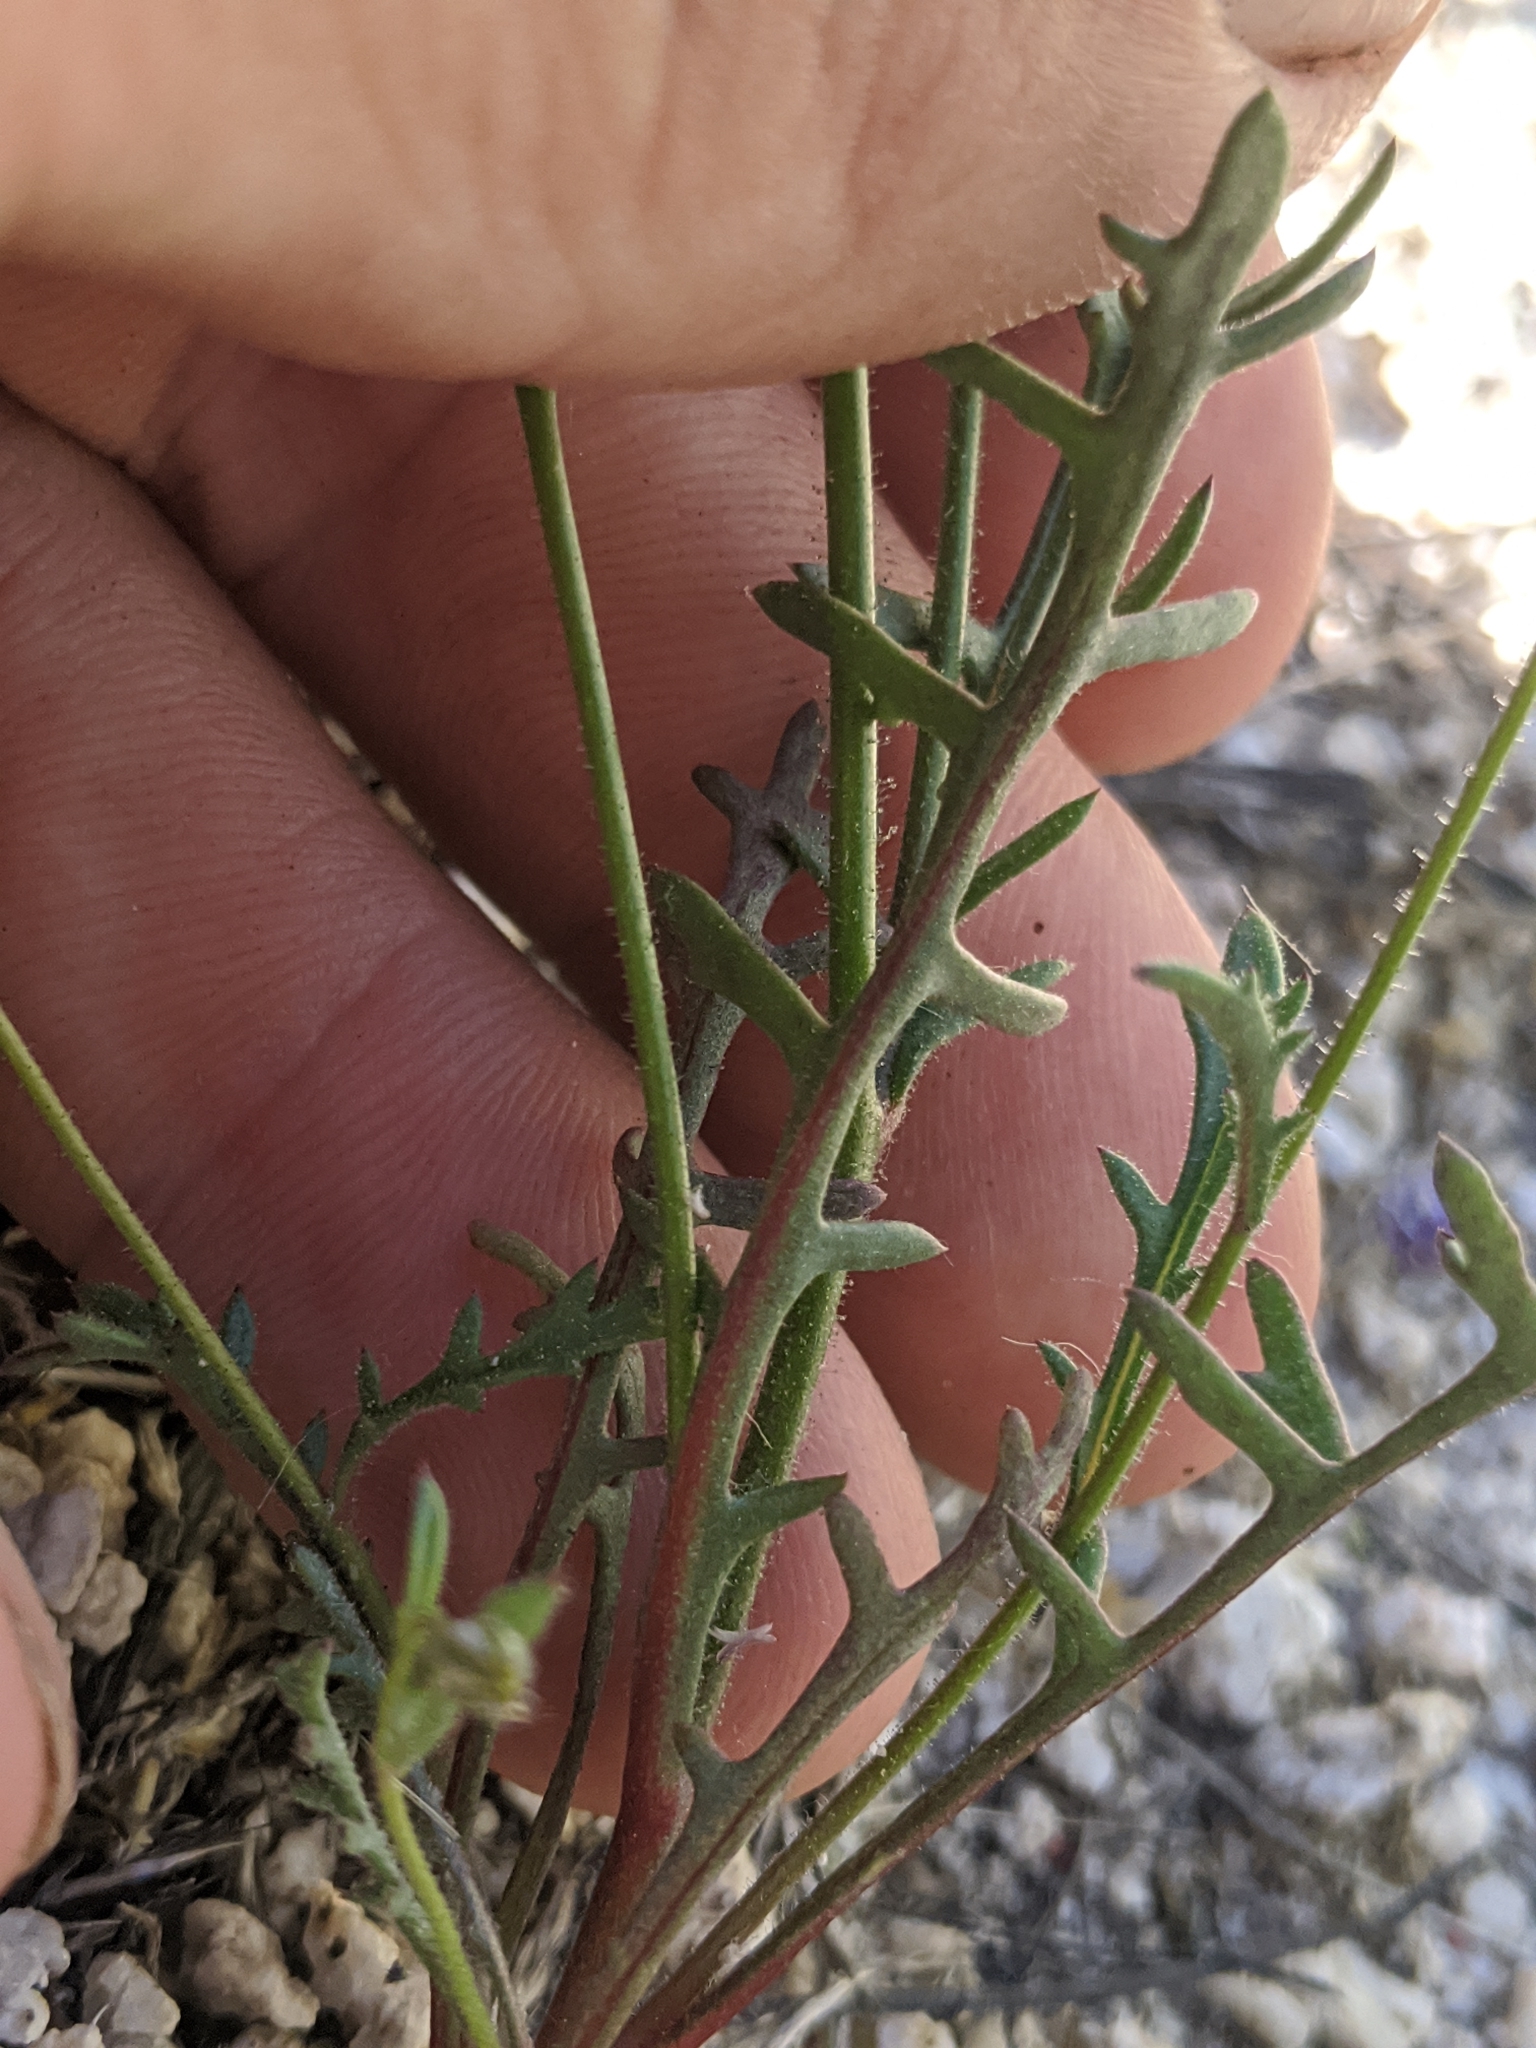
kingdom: Plantae
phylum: Tracheophyta
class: Magnoliopsida
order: Ericales
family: Polemoniaceae
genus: Gilia
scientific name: Gilia cana
